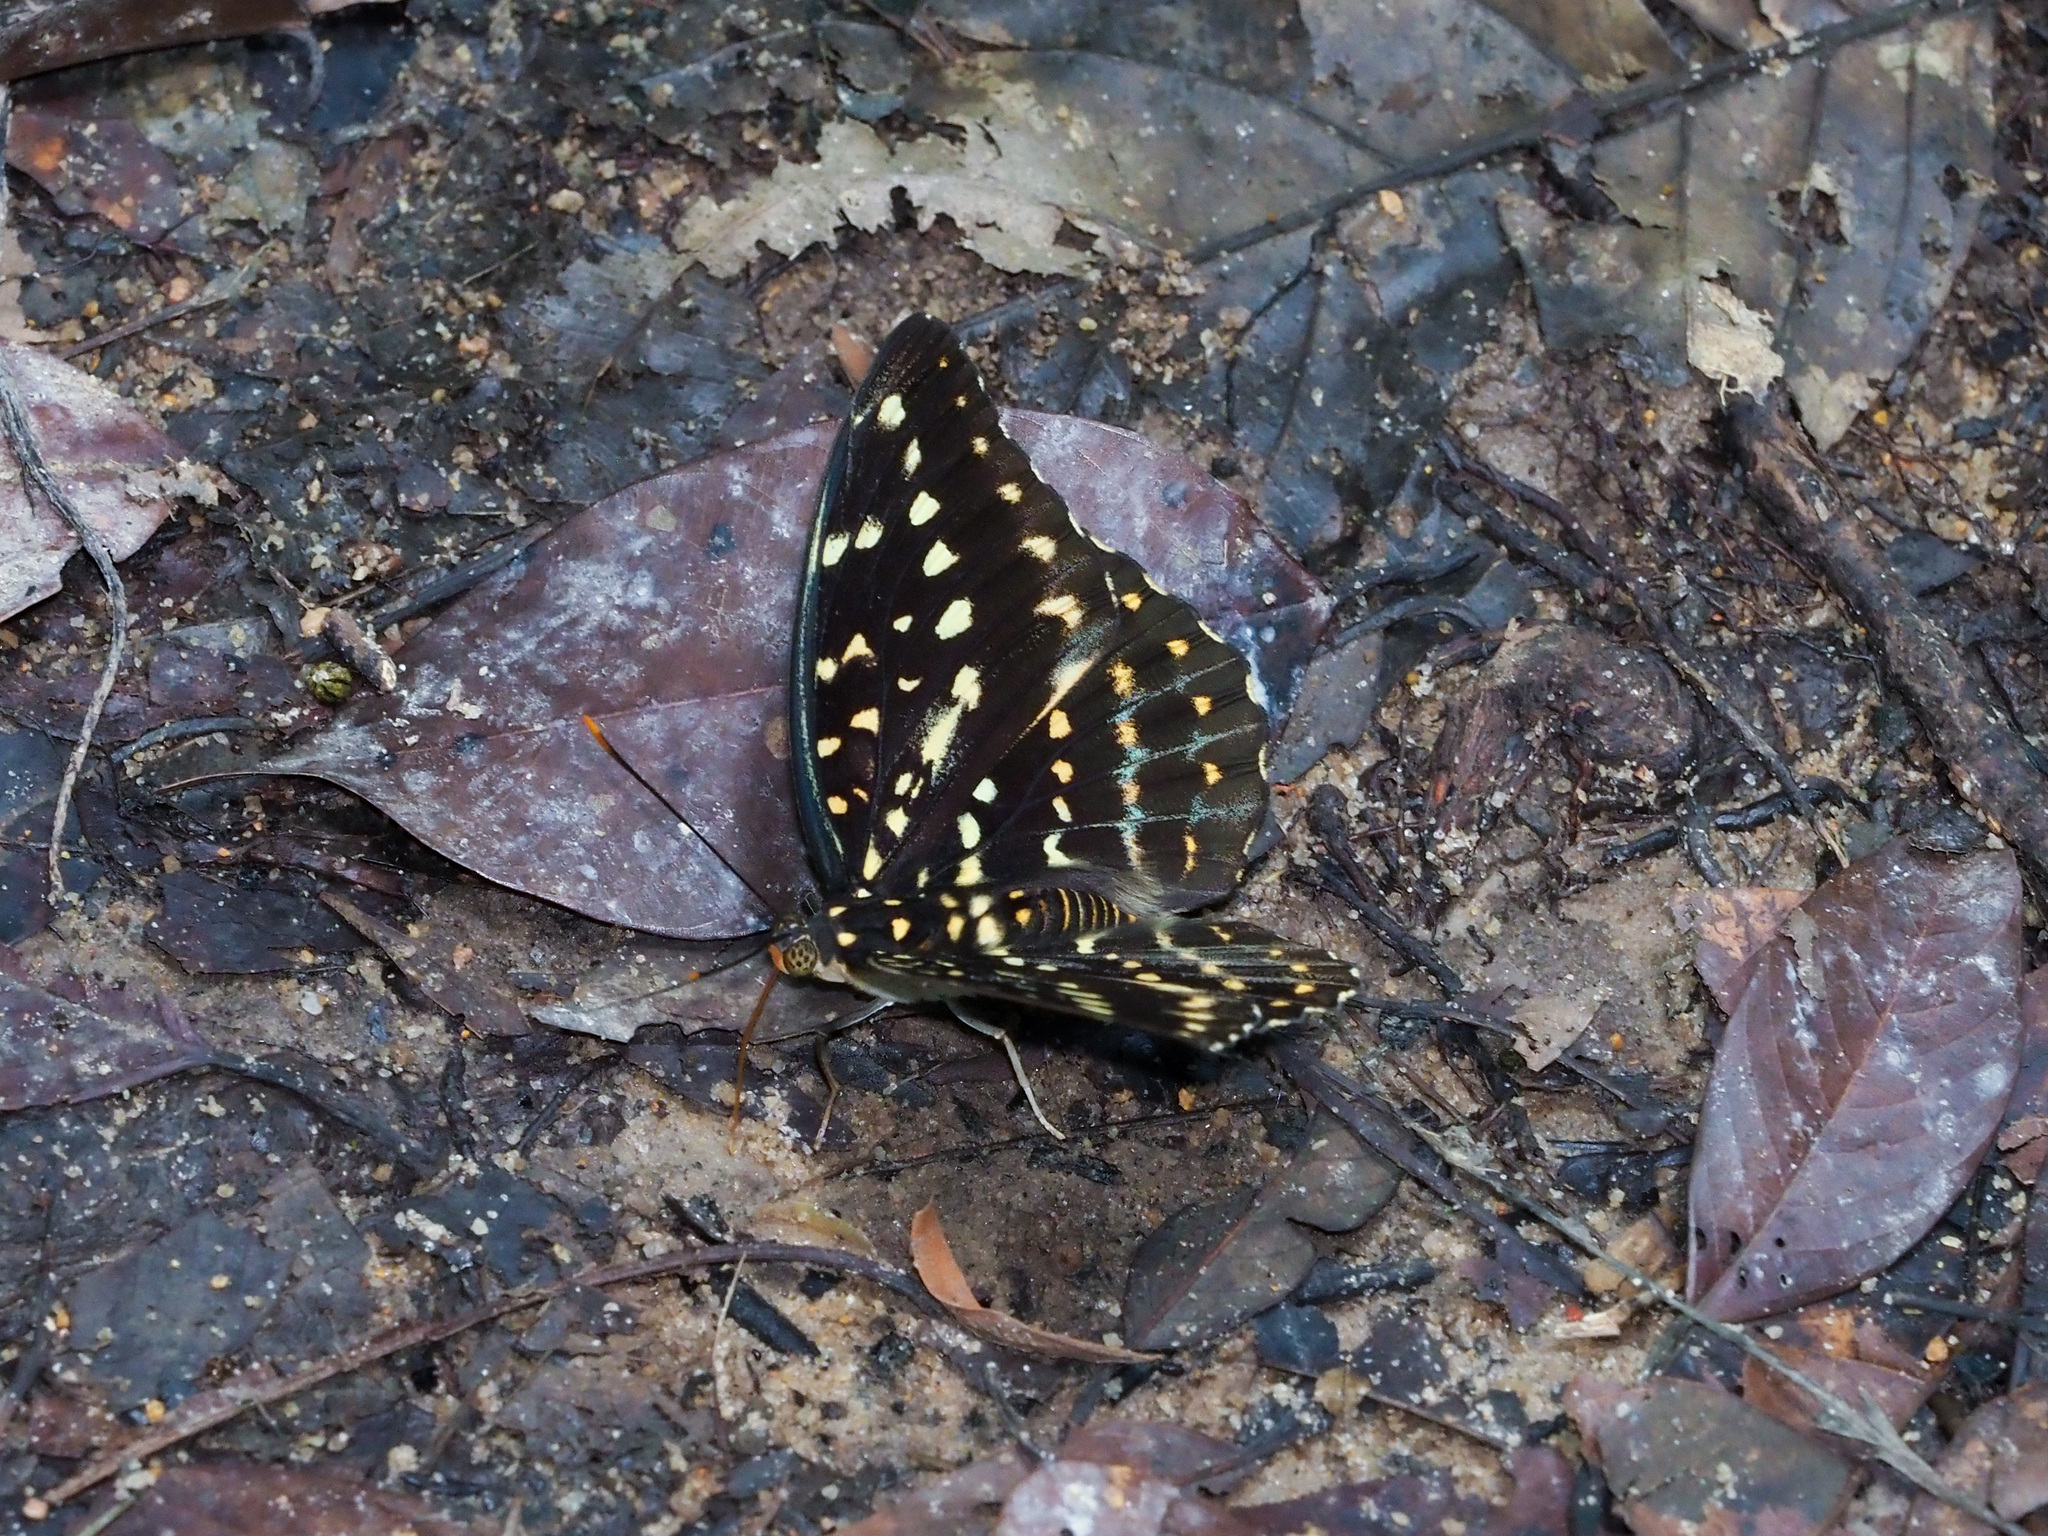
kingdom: Animalia
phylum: Arthropoda
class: Insecta
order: Lepidoptera
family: Nymphalidae
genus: Lexias
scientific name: Lexias pardalis
